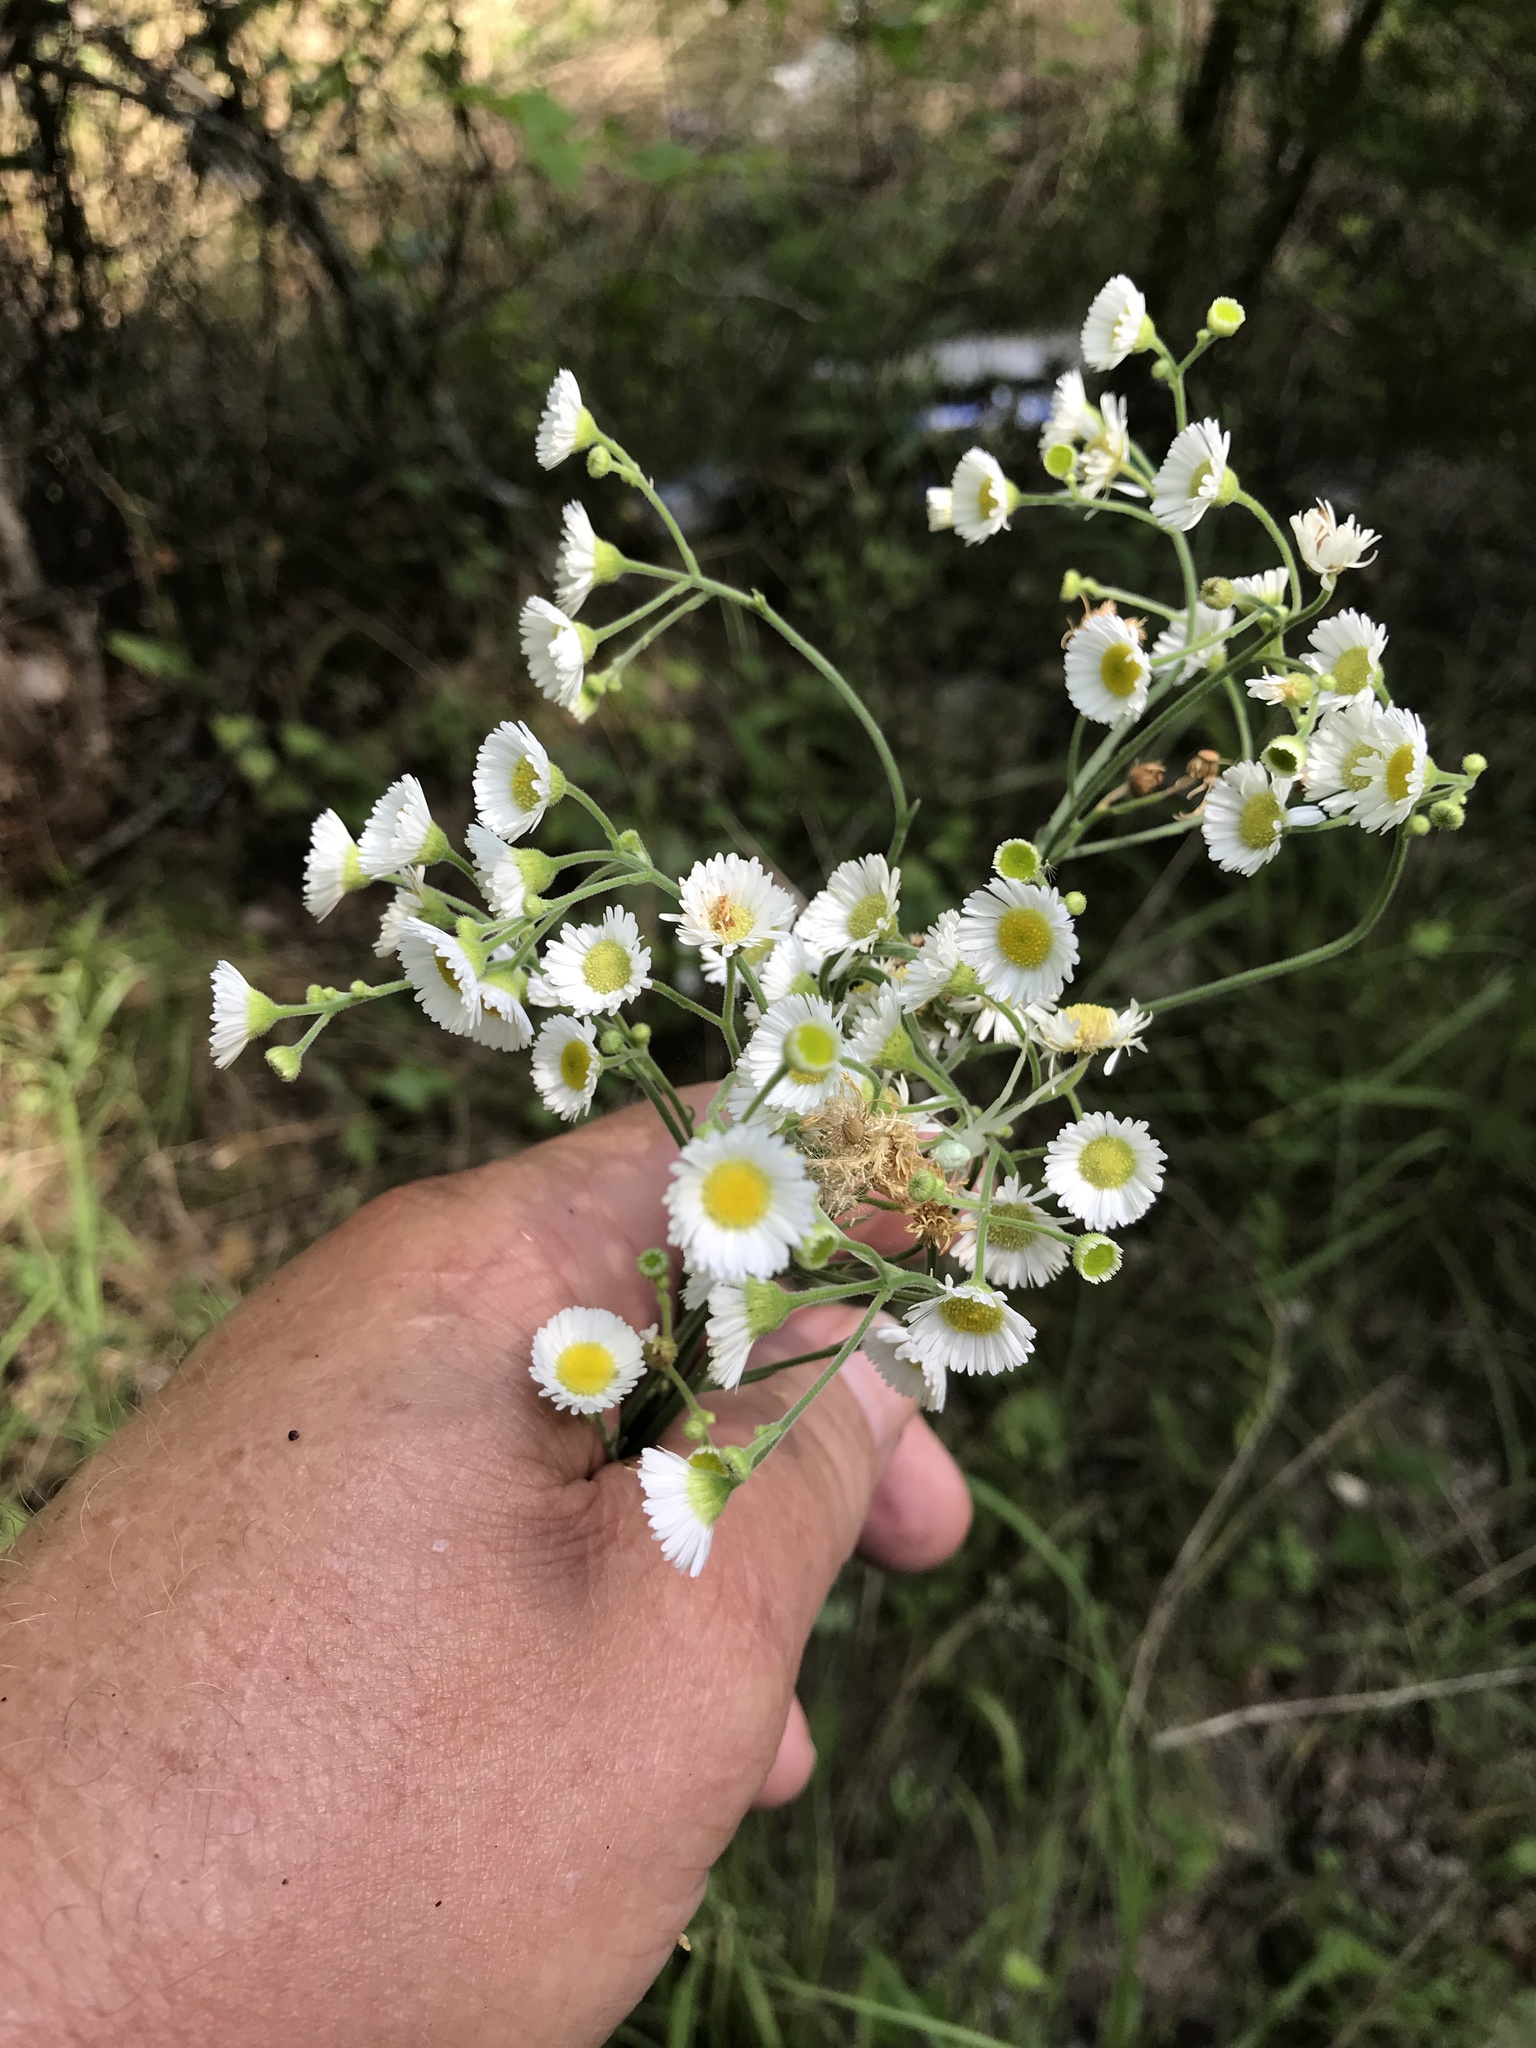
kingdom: Plantae
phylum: Tracheophyta
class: Magnoliopsida
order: Asterales
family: Asteraceae
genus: Erigeron
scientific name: Erigeron strigosus
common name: Common eastern fleabane
